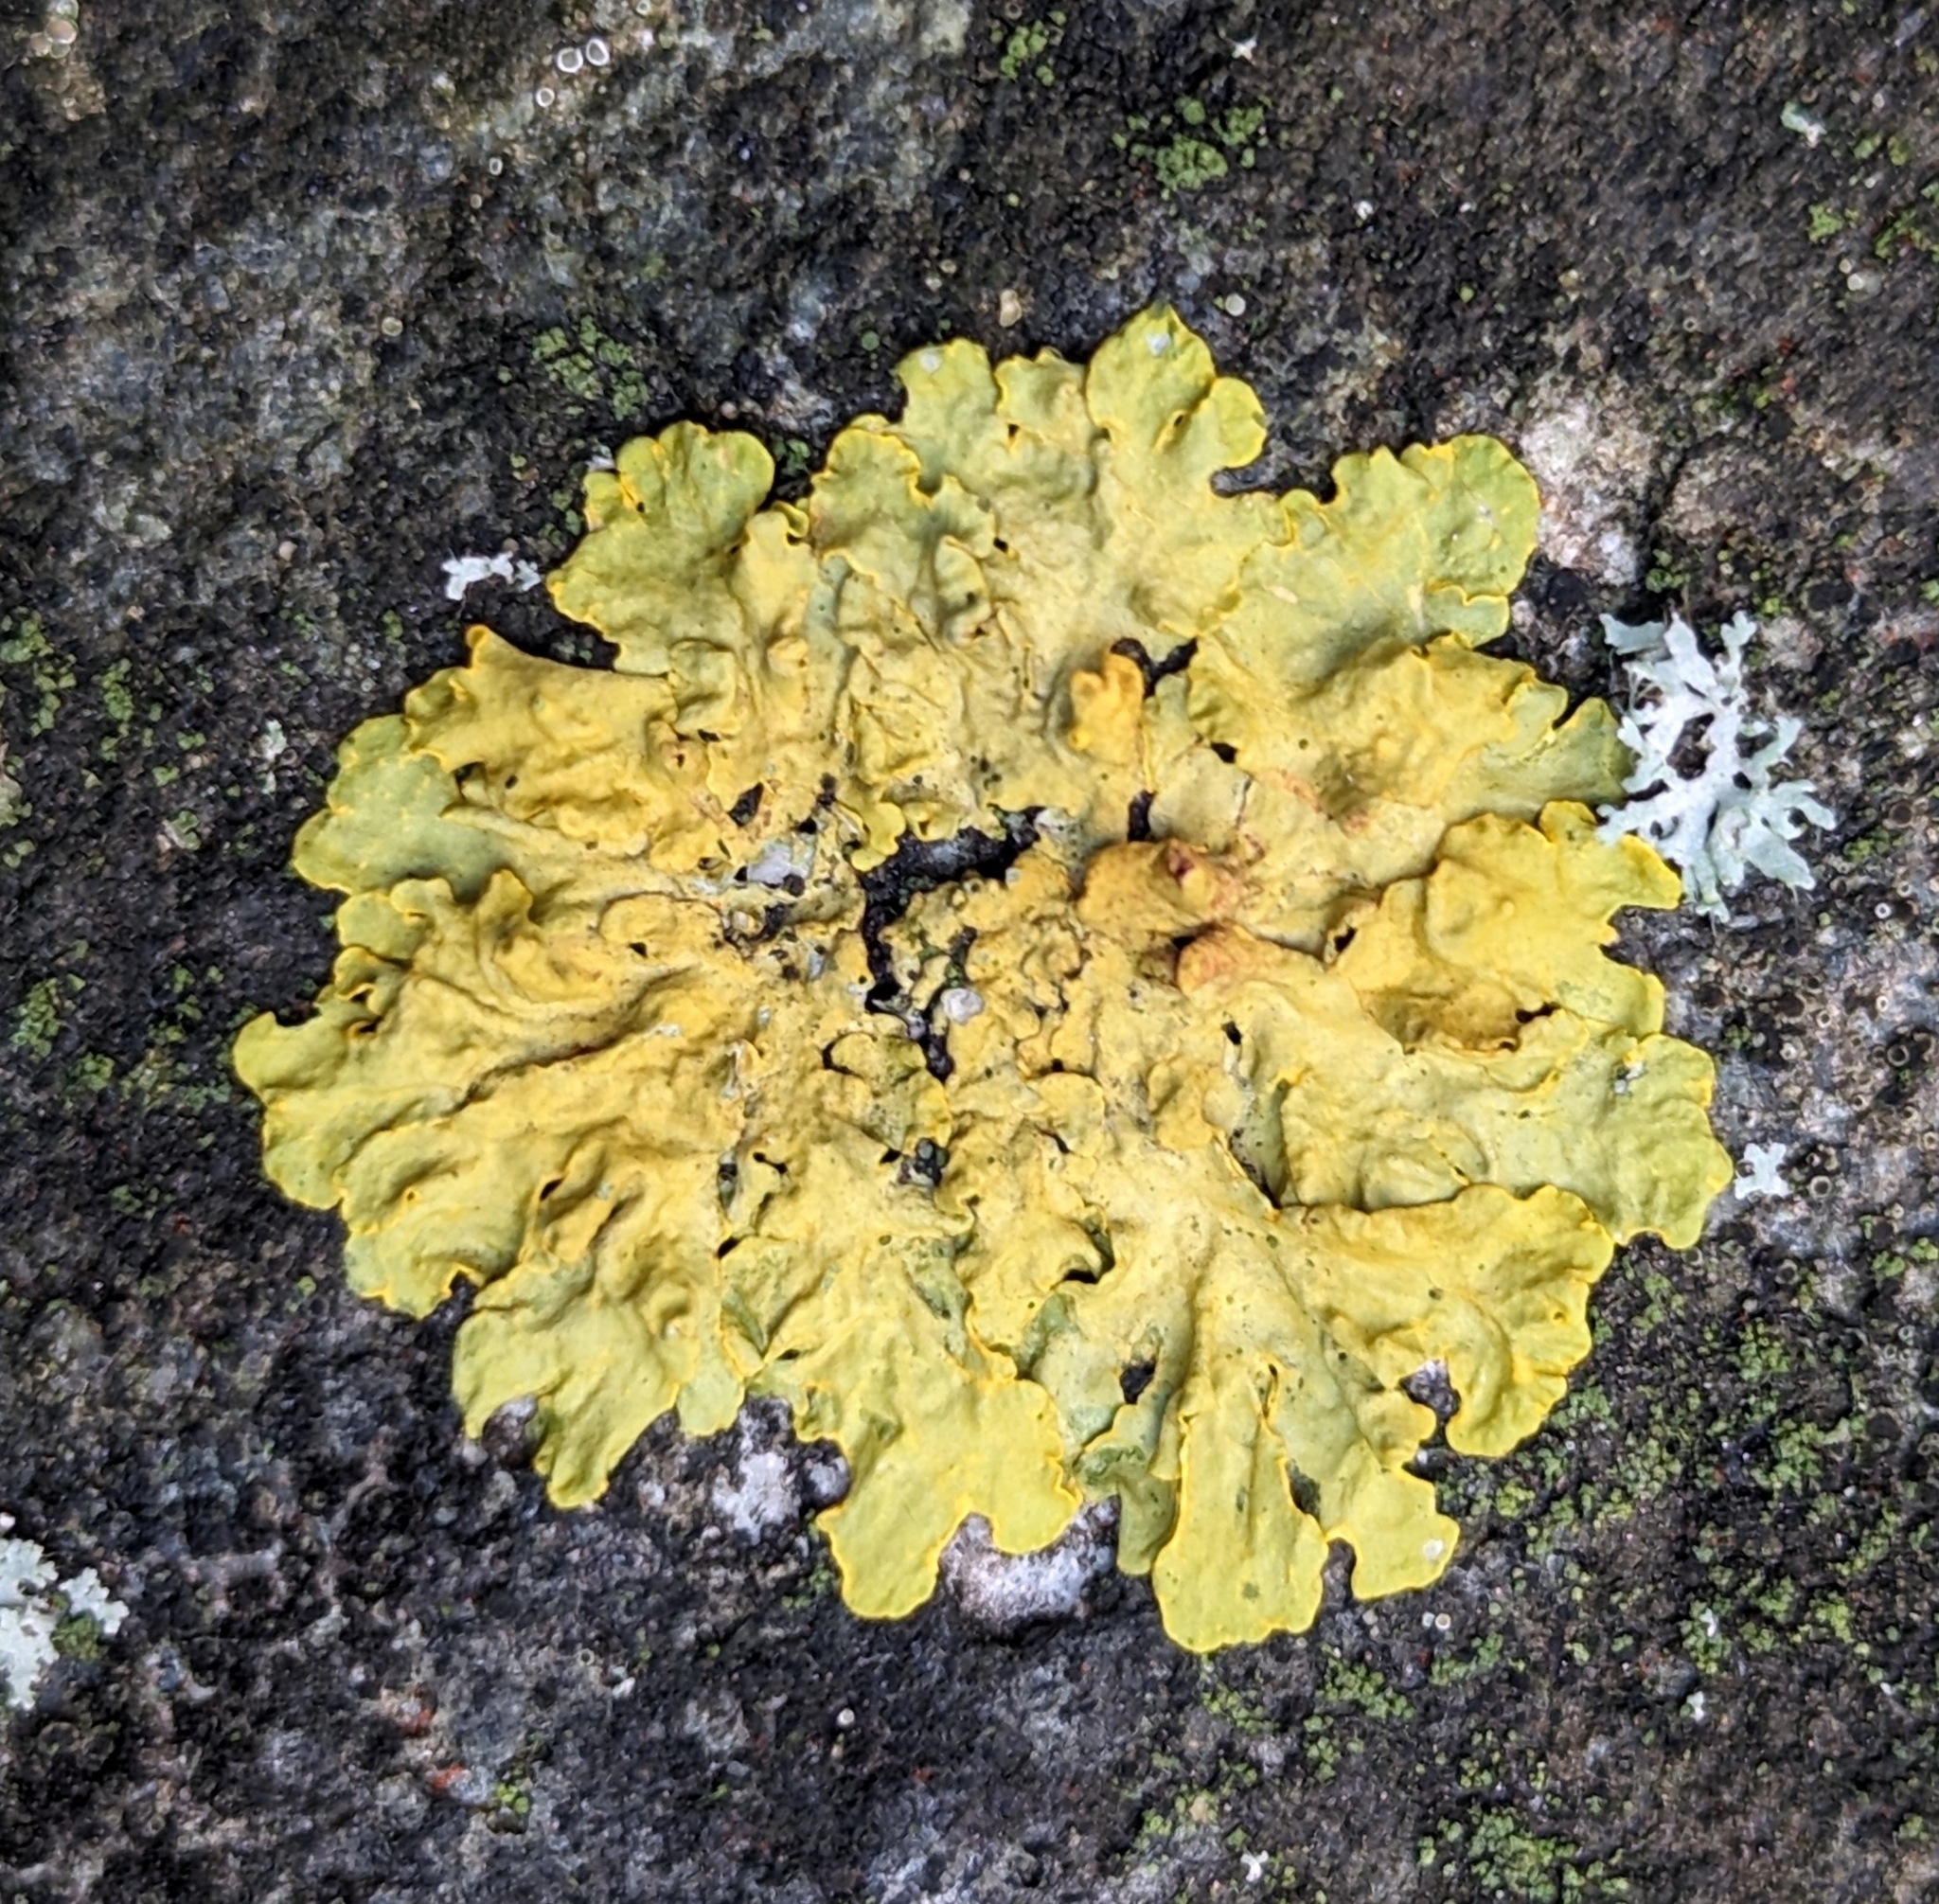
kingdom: Fungi
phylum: Ascomycota
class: Lecanoromycetes
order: Teloschistales
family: Teloschistaceae
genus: Xanthoria
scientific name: Xanthoria parietina
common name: Common orange lichen
